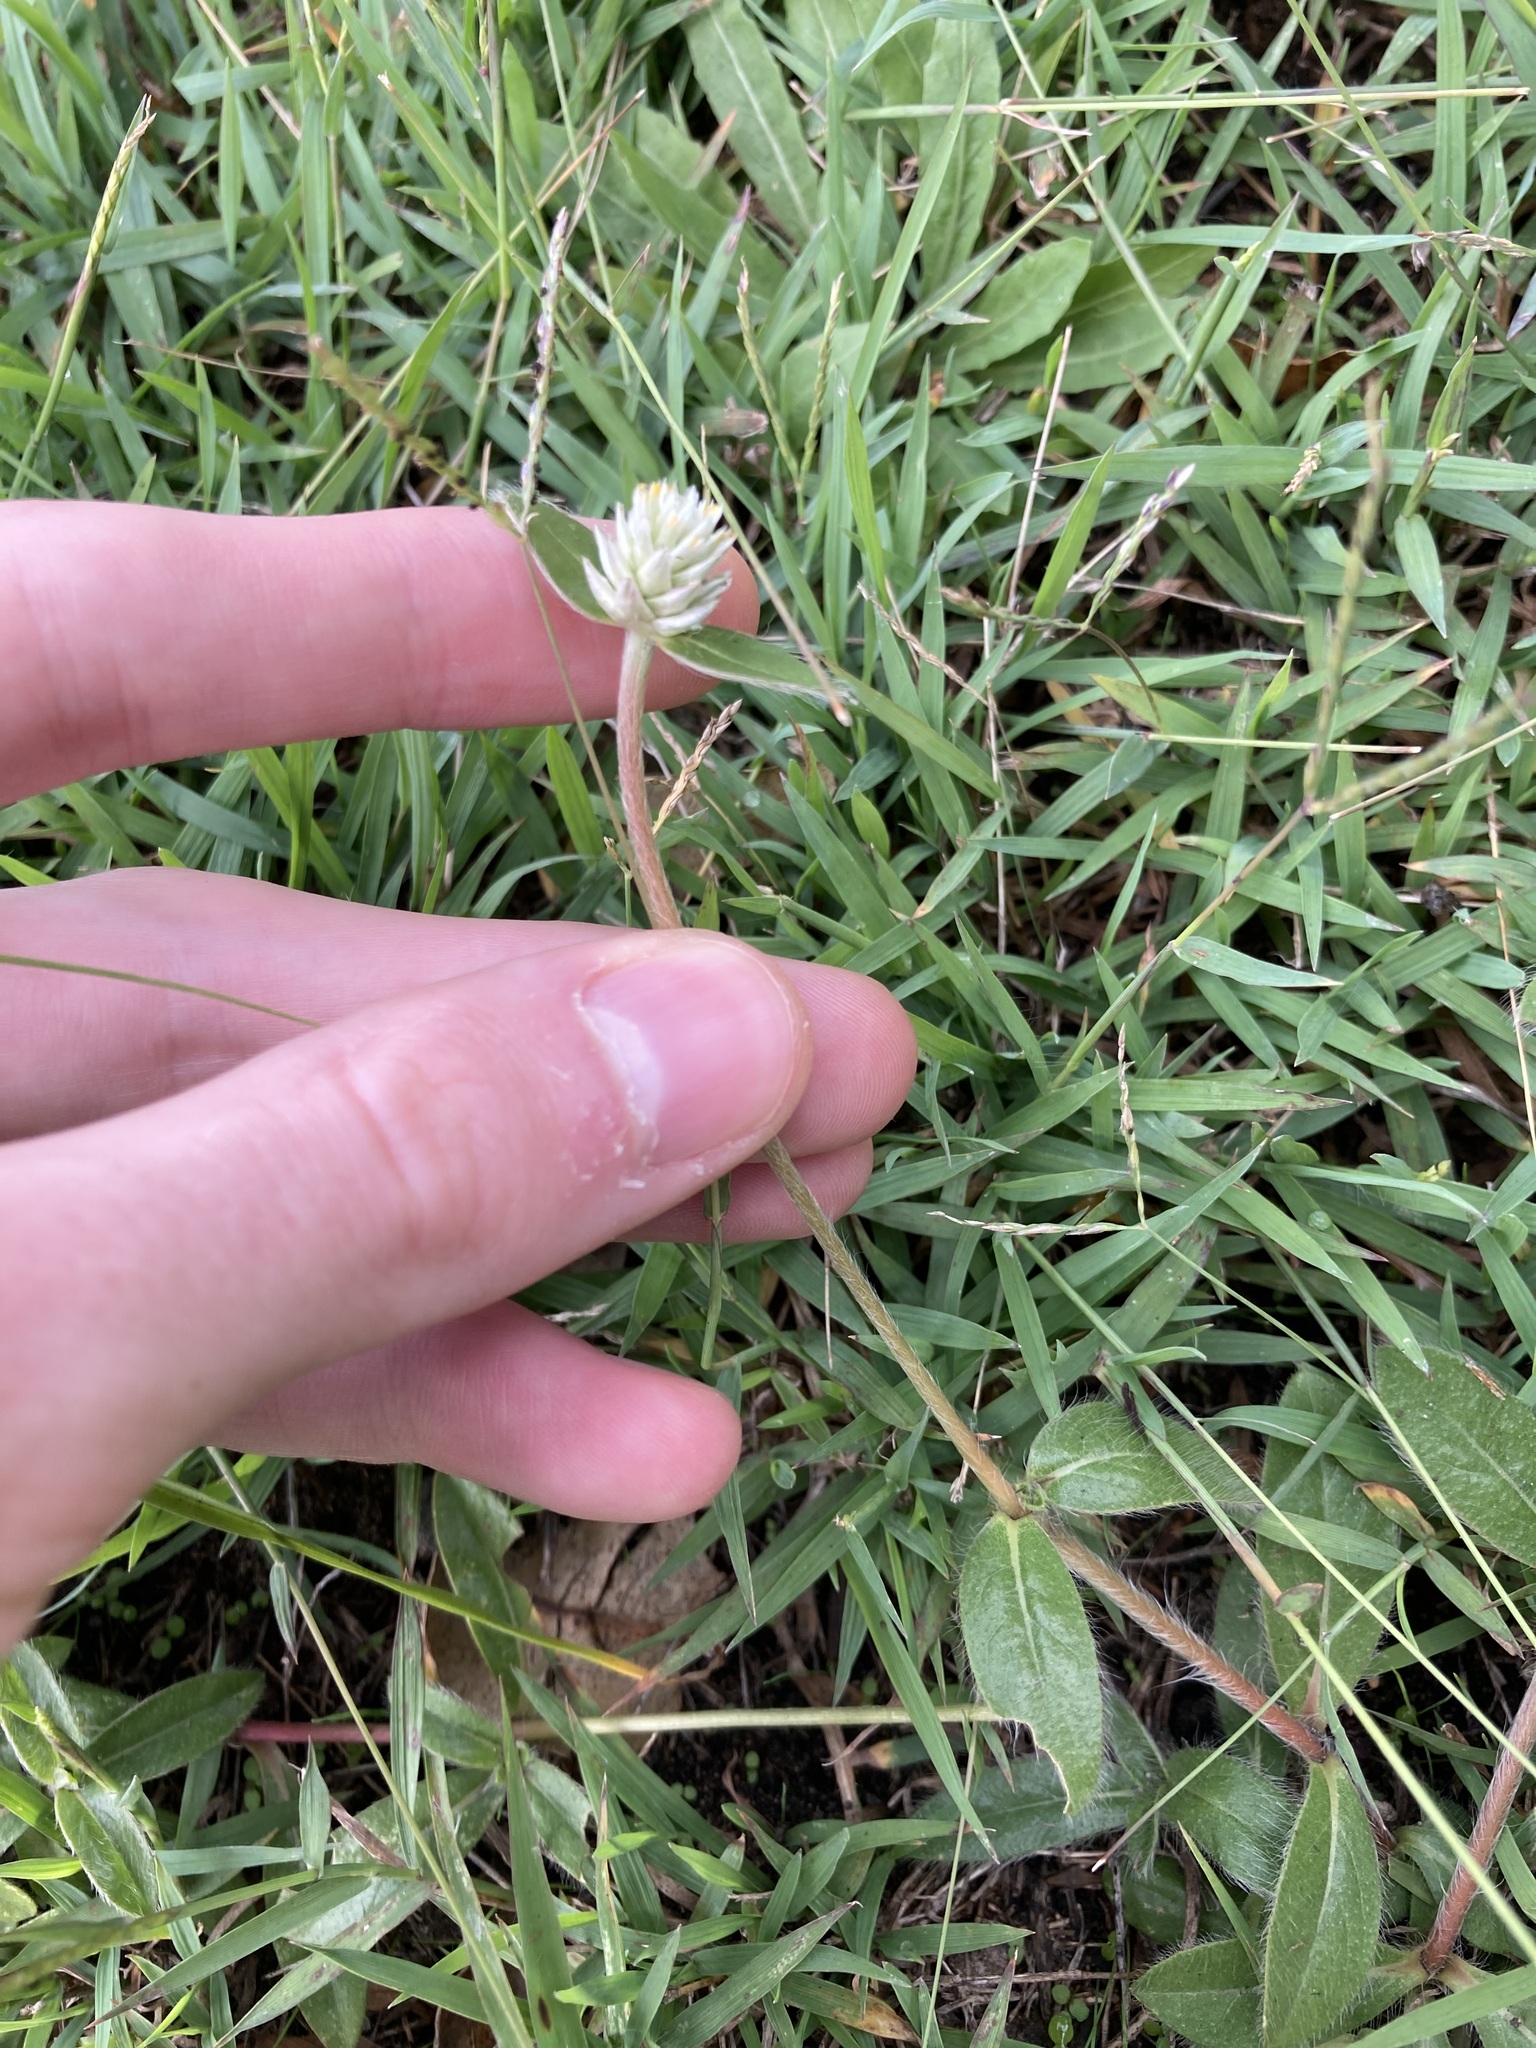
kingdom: Plantae
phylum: Tracheophyta
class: Magnoliopsida
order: Caryophyllales
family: Amaranthaceae
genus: Gomphrena
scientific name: Gomphrena celosioides
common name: Gomphrena-weed
